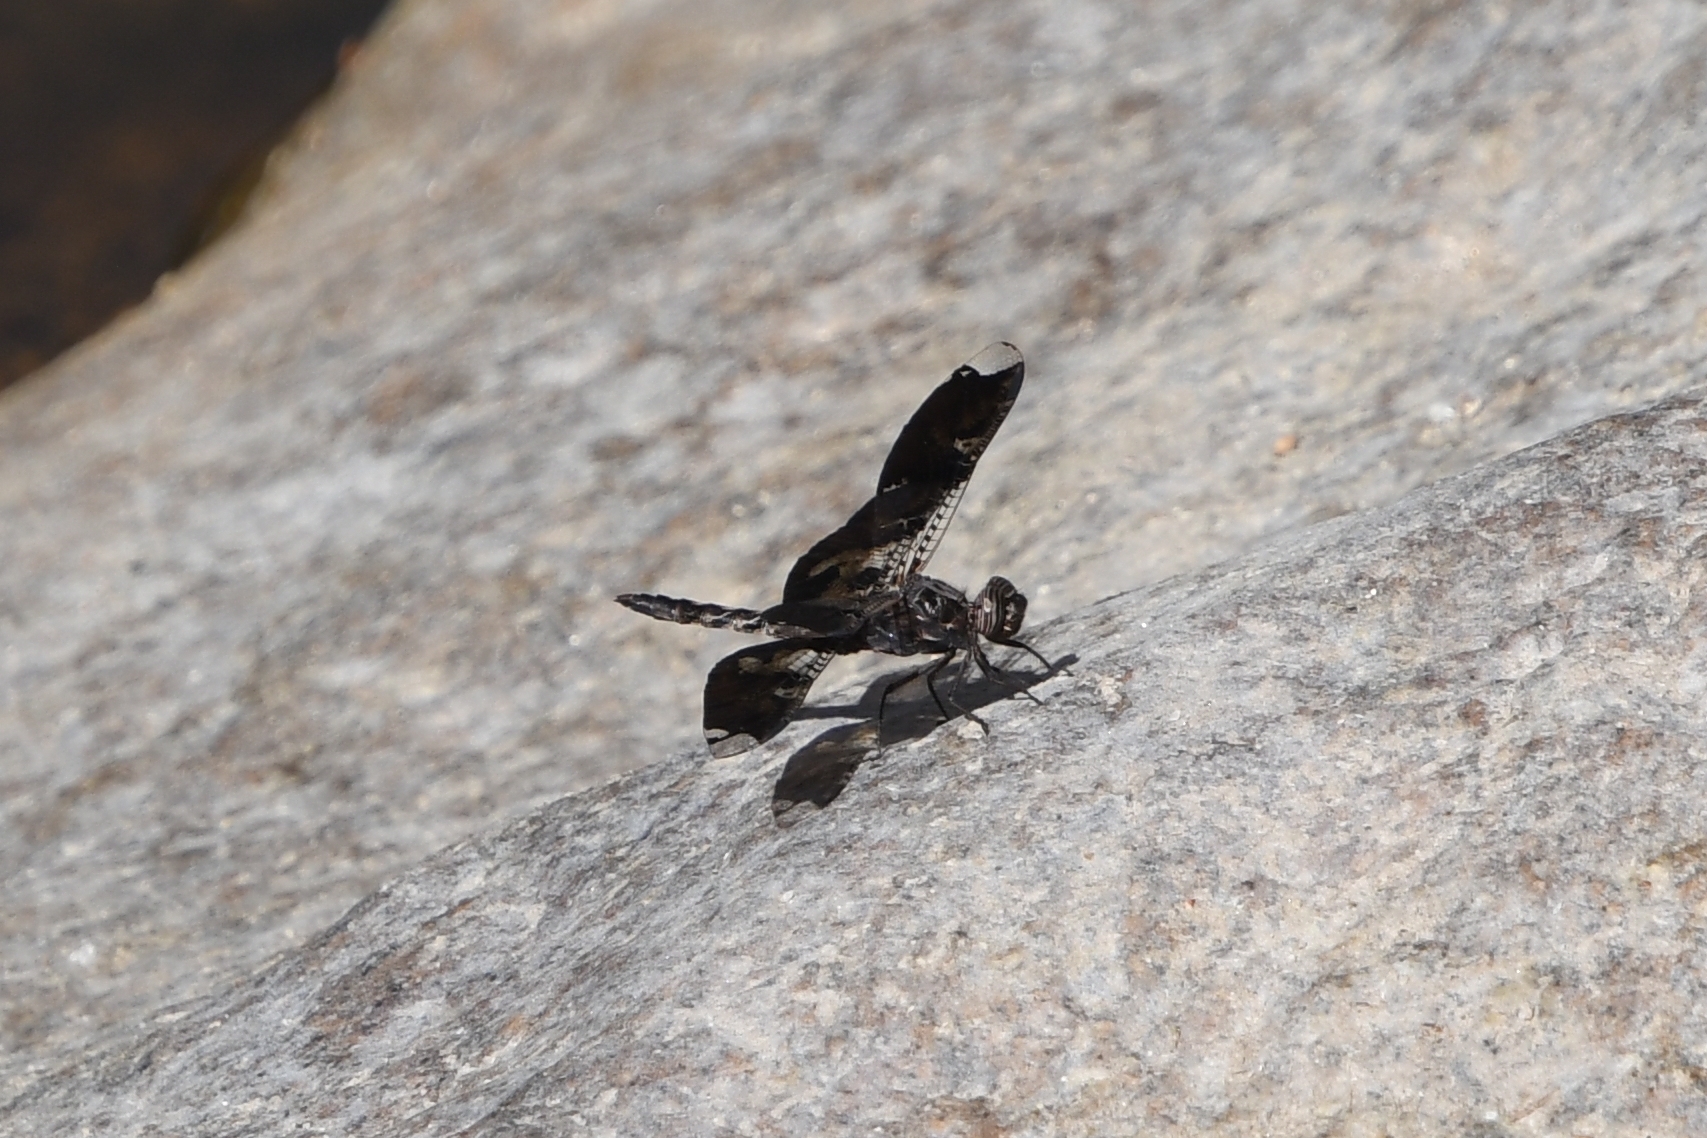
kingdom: Animalia
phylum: Arthropoda
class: Insecta
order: Odonata
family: Libellulidae
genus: Pseudoleon
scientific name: Pseudoleon superbus
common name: Filigree skimmer
